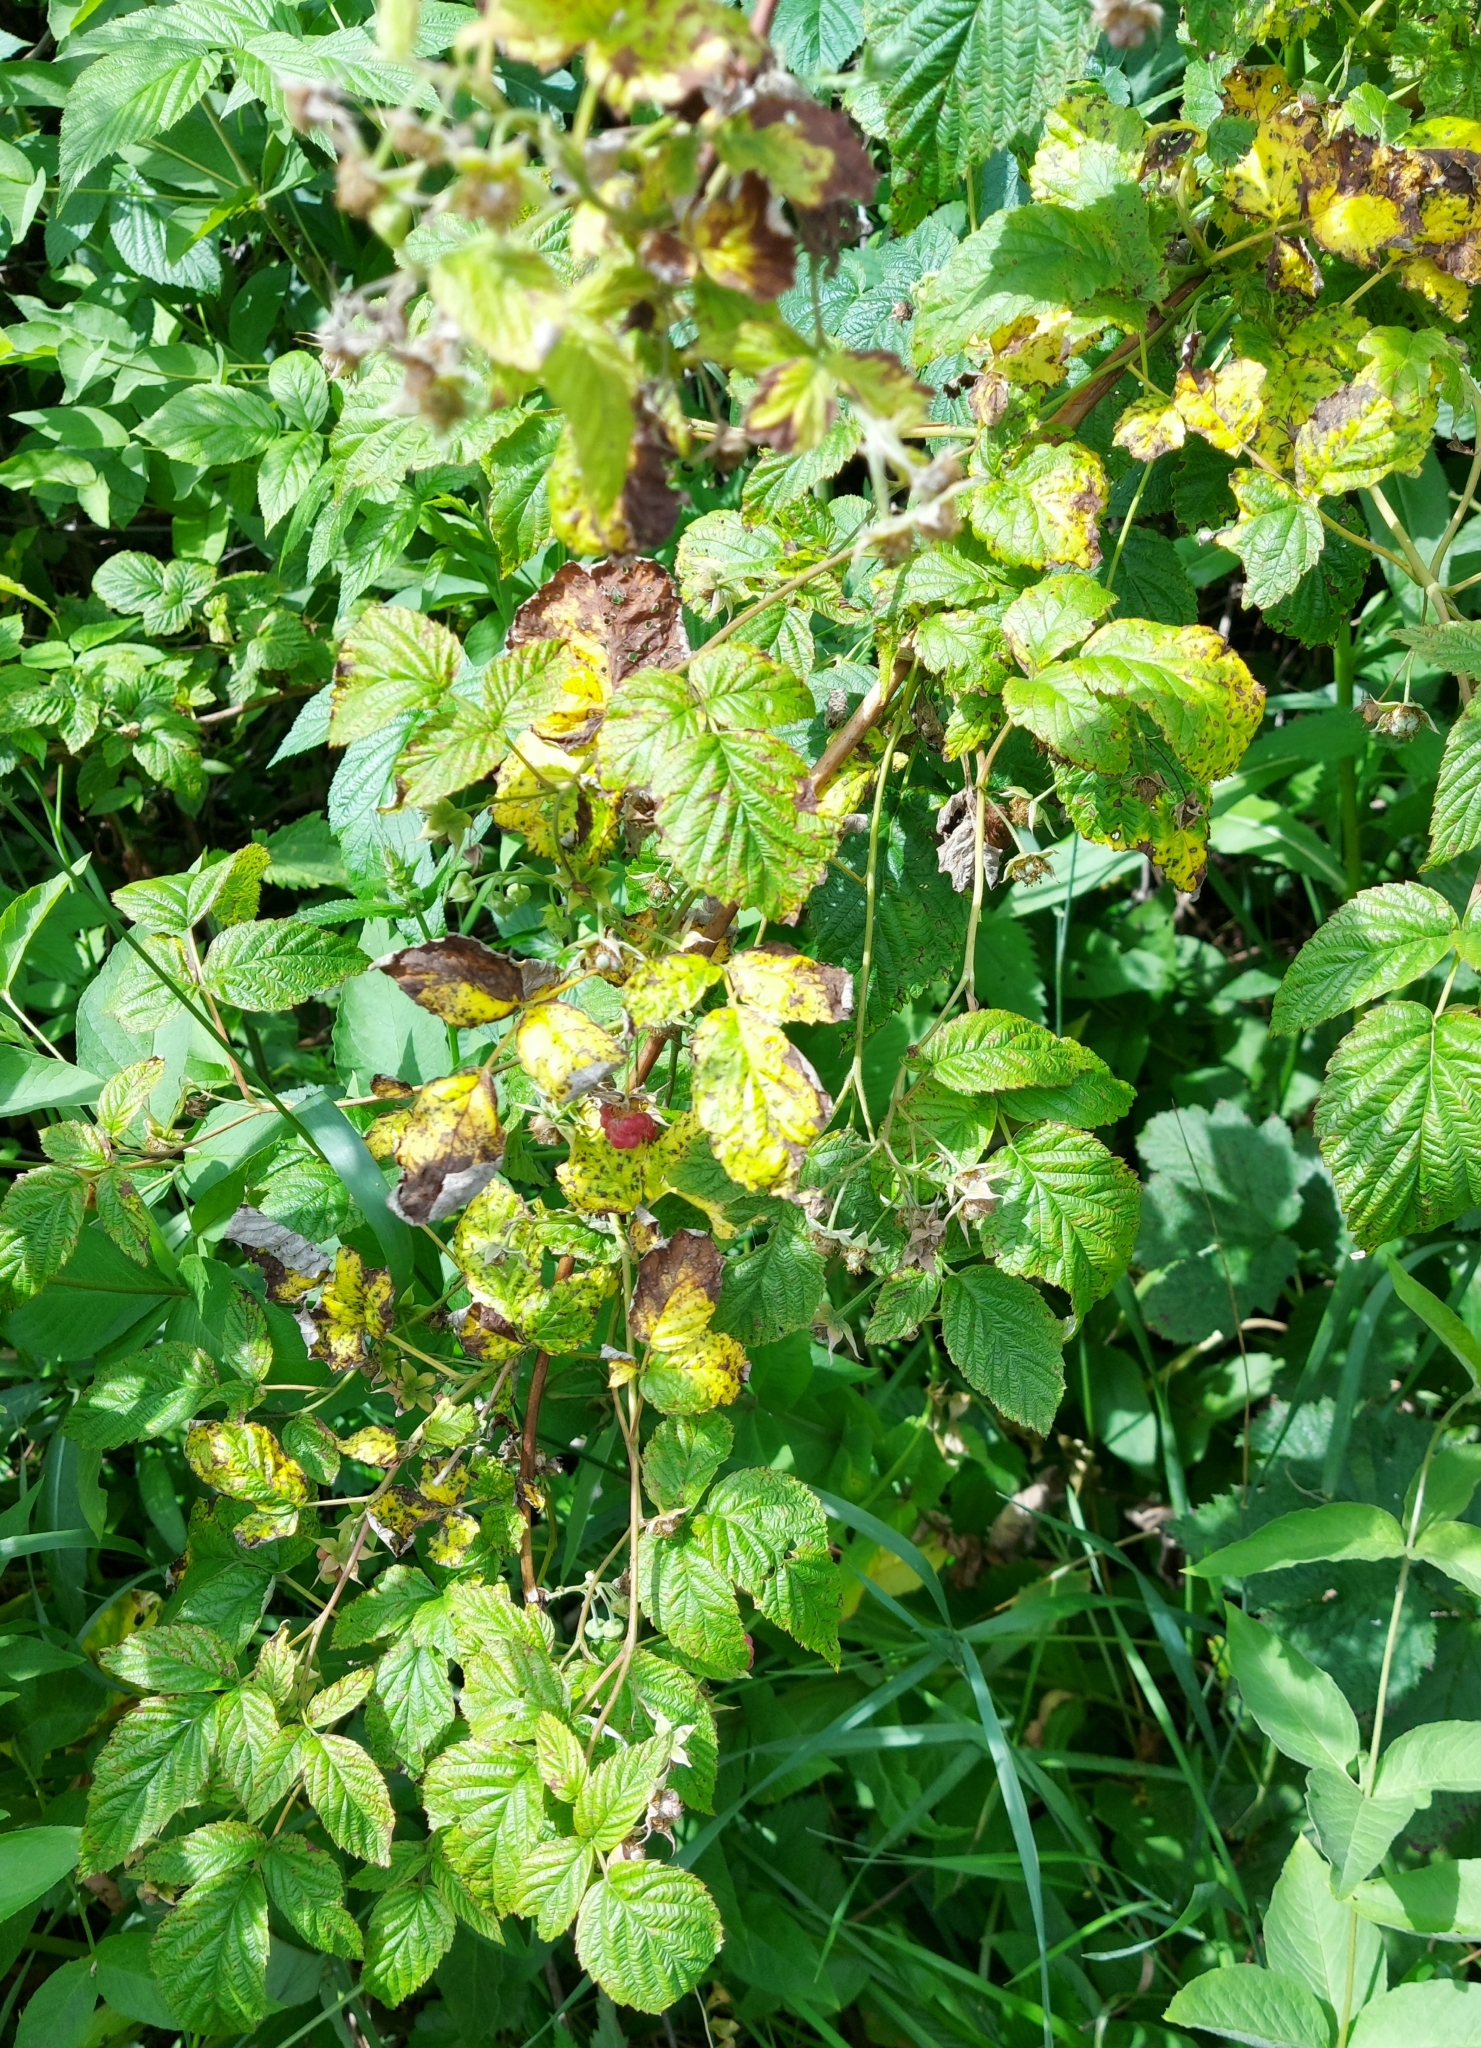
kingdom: Plantae
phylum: Tracheophyta
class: Magnoliopsida
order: Rosales
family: Rosaceae
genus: Rubus
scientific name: Rubus idaeus
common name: Raspberry
